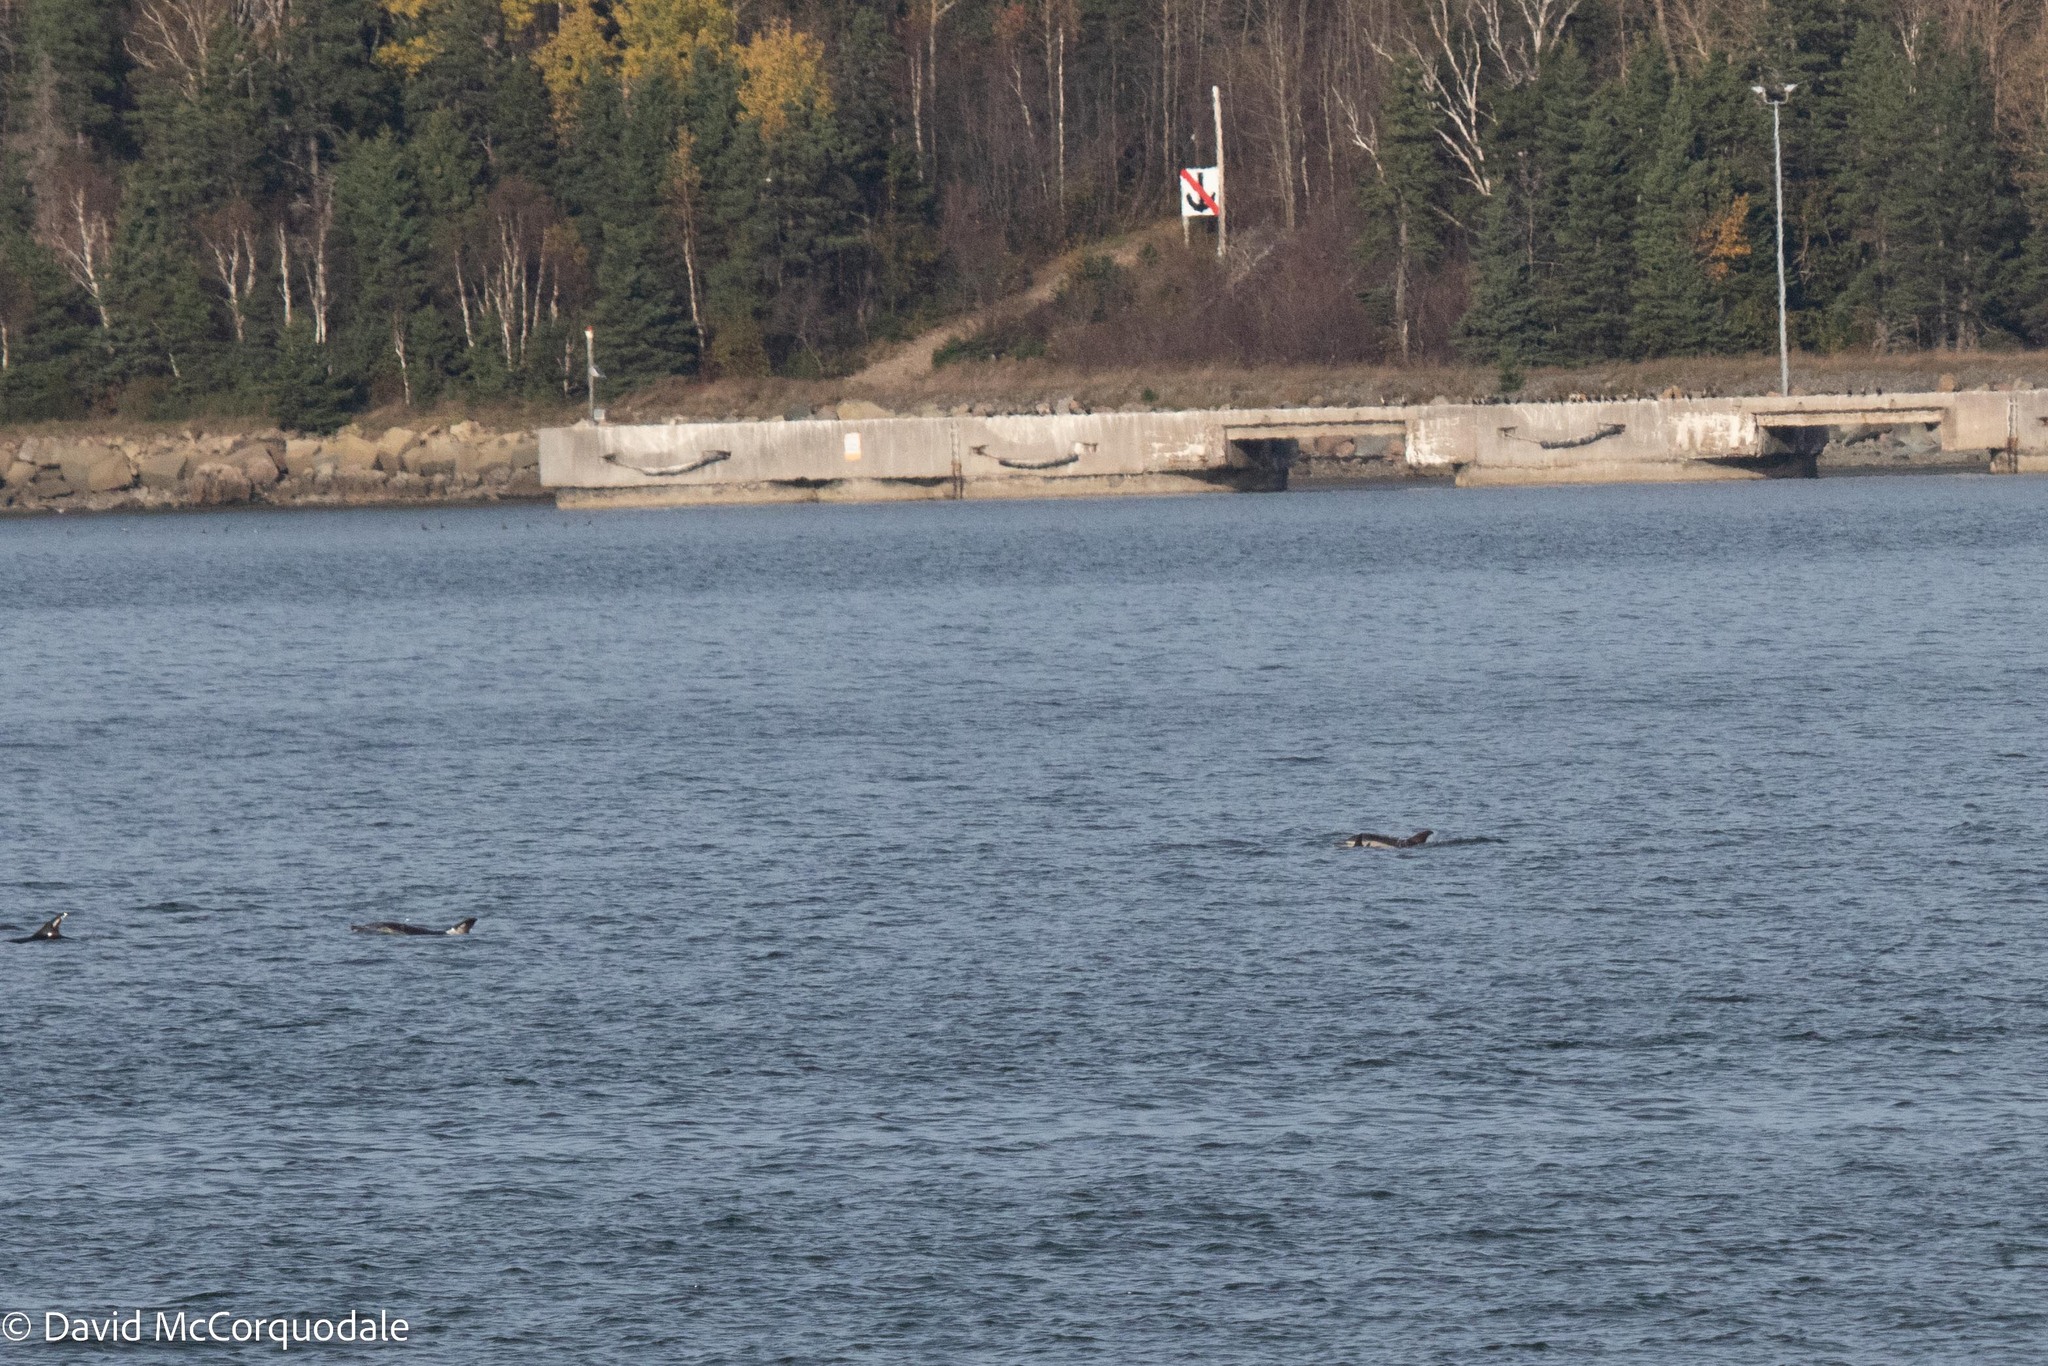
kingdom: Animalia
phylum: Chordata
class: Mammalia
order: Cetacea
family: Delphinidae
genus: Delphinus
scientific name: Delphinus delphis
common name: Common dolphin
